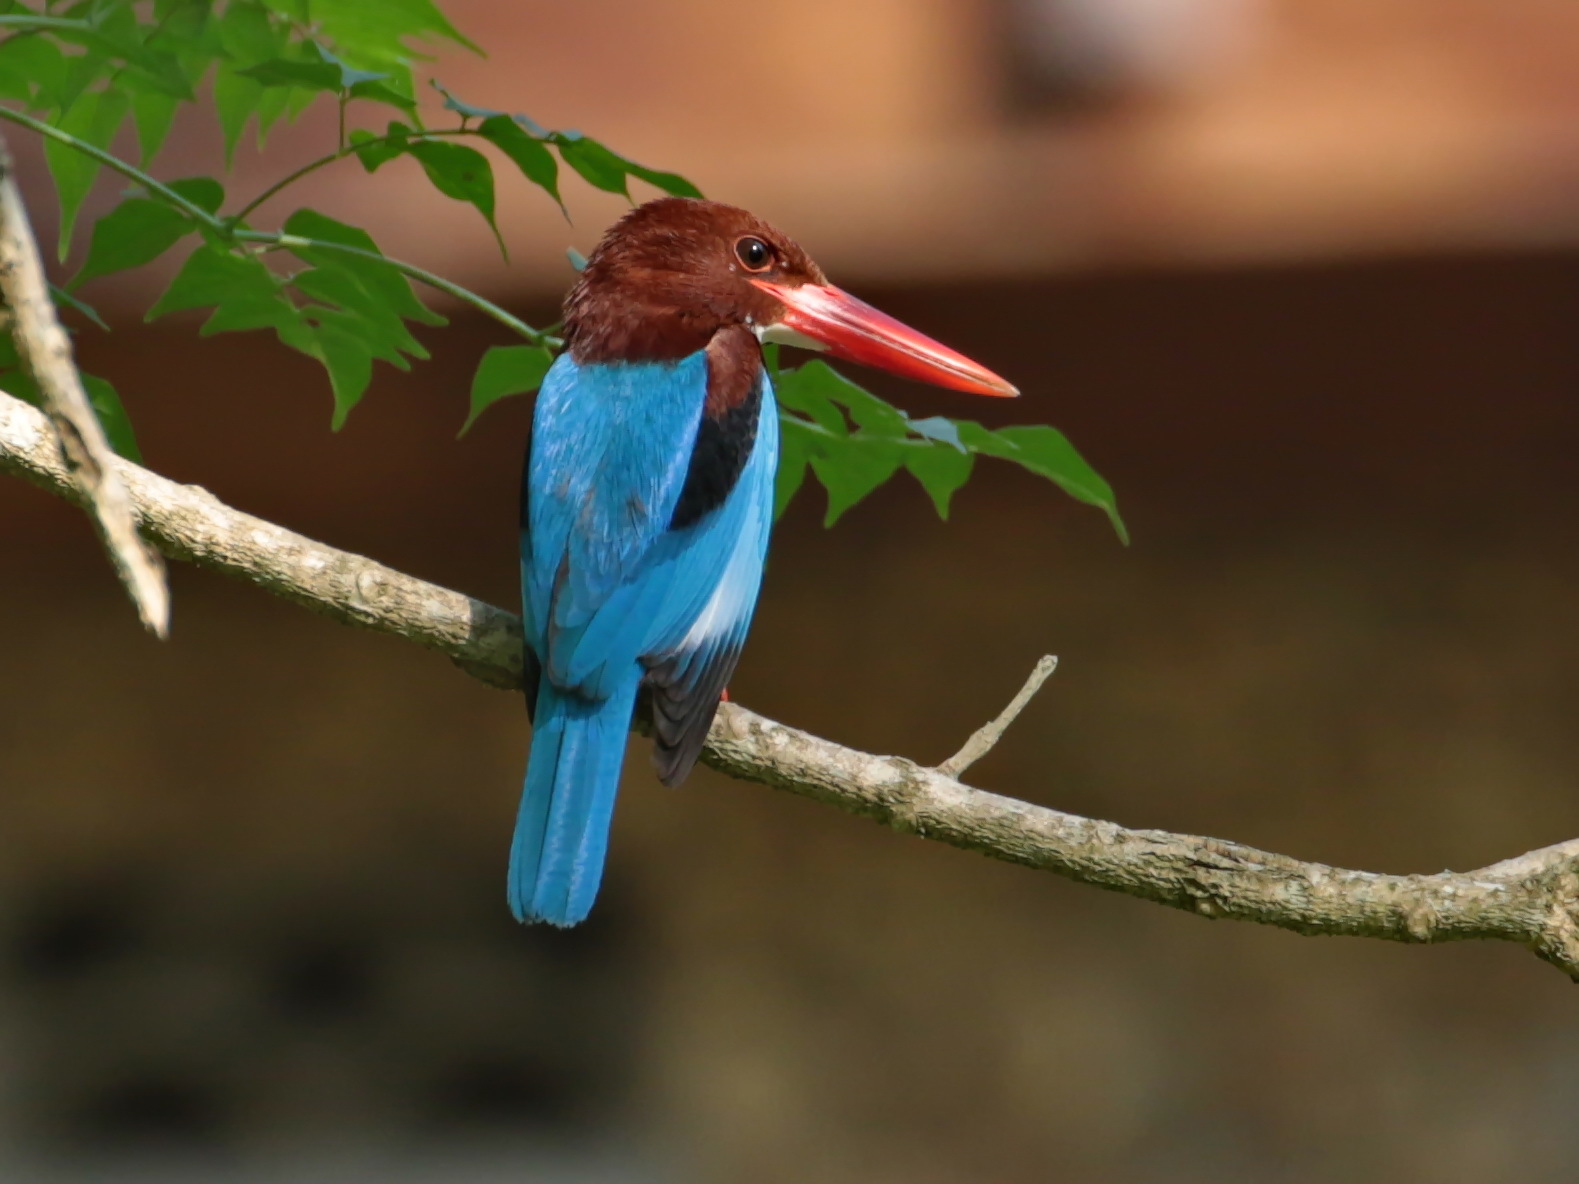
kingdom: Animalia
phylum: Chordata
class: Aves
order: Coraciiformes
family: Alcedinidae
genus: Halcyon
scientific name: Halcyon smyrnensis
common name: White-throated kingfisher
